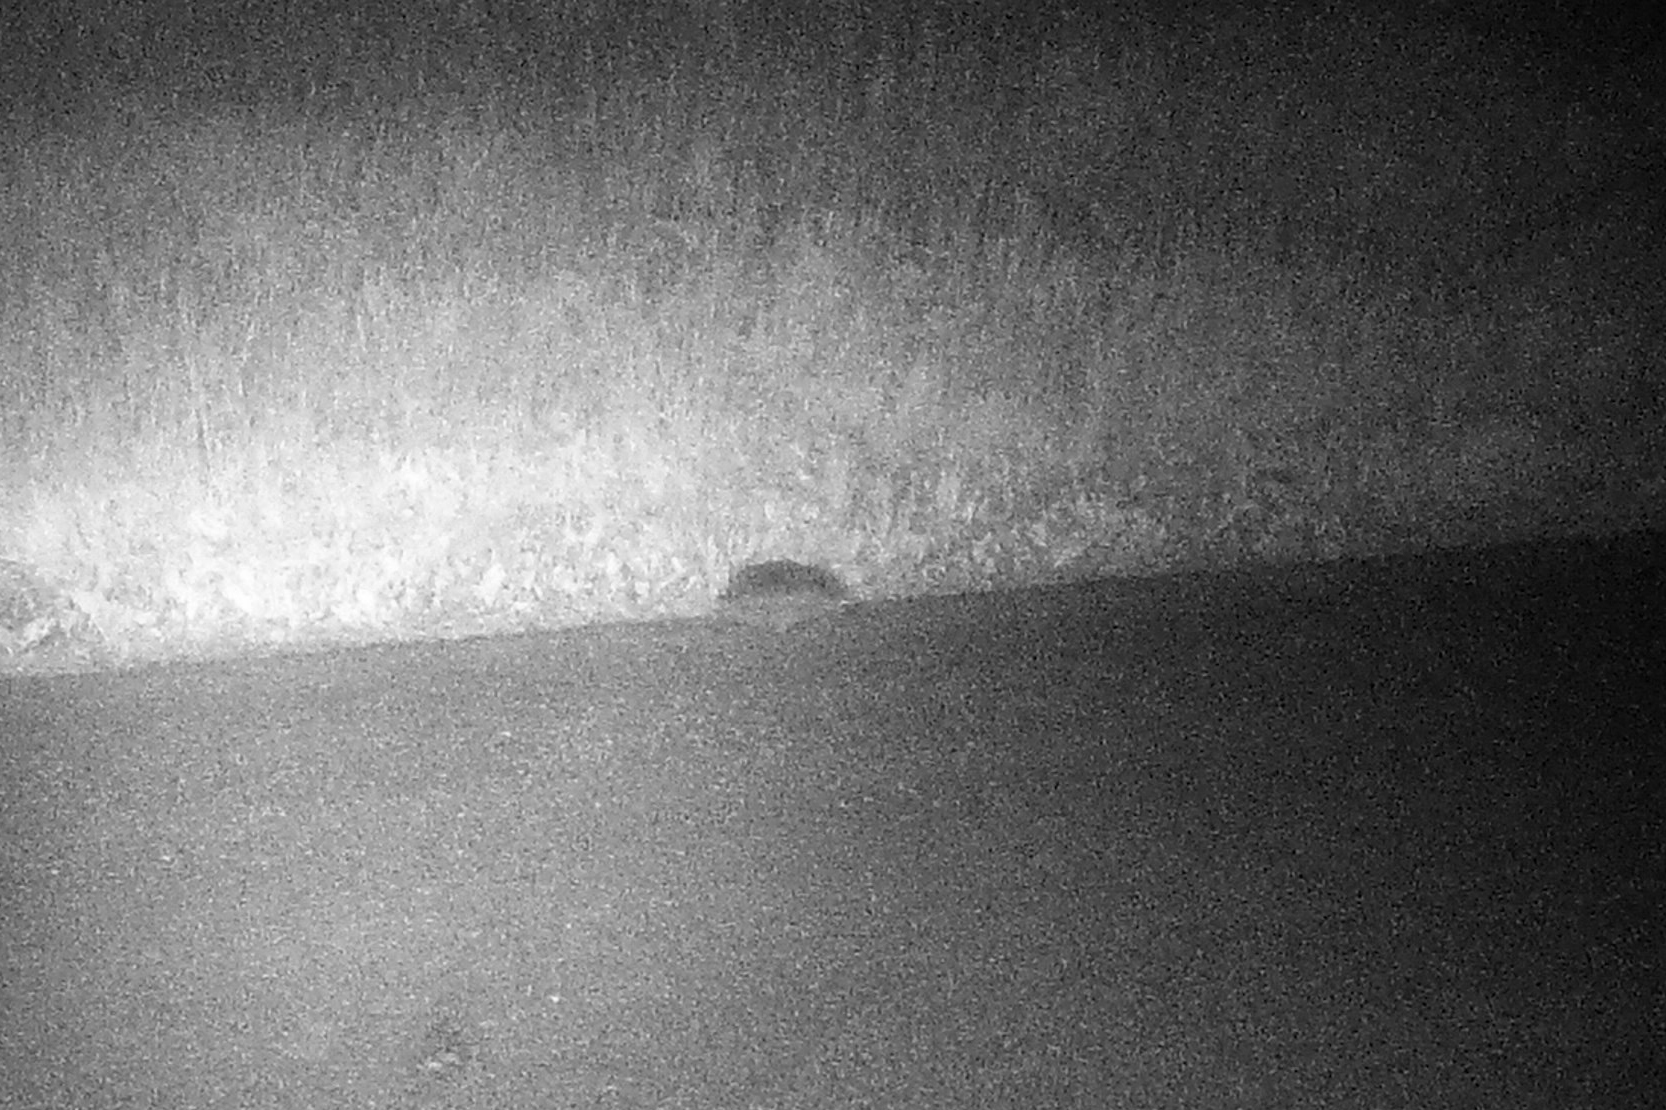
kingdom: Animalia
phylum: Chordata
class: Mammalia
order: Erinaceomorpha
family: Erinaceidae
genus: Erinaceus
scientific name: Erinaceus europaeus
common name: West european hedgehog
